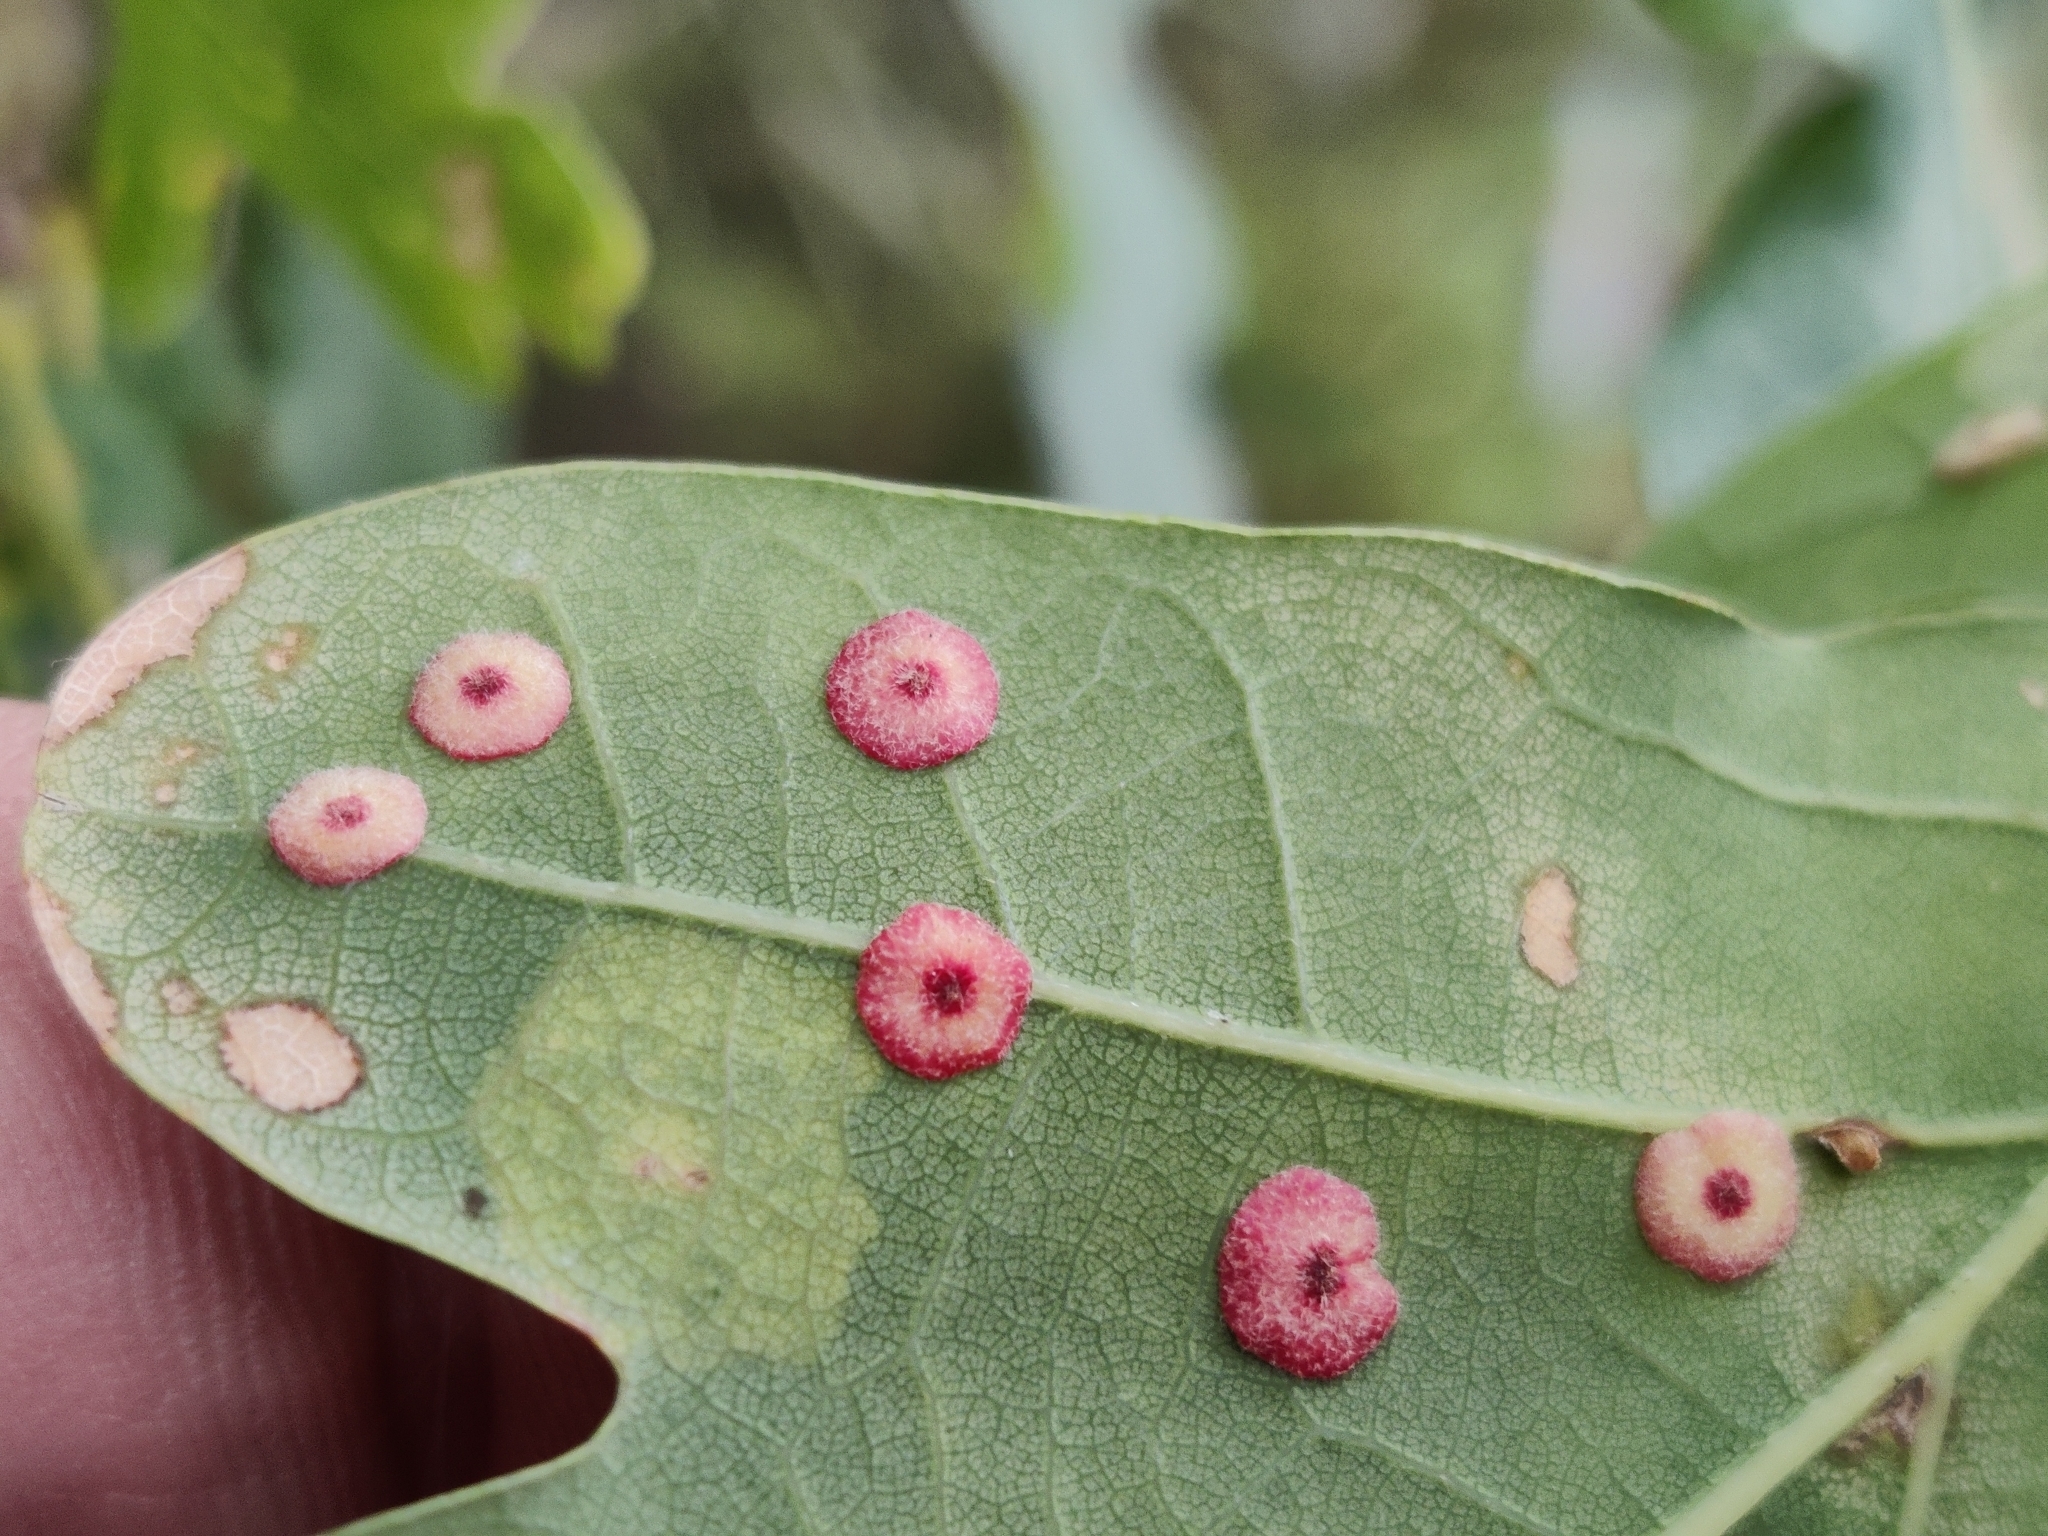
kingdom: Animalia
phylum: Arthropoda
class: Insecta
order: Hymenoptera
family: Cynipidae
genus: Neuroterus
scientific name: Neuroterus quercusbaccarum
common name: Common spangle gall
